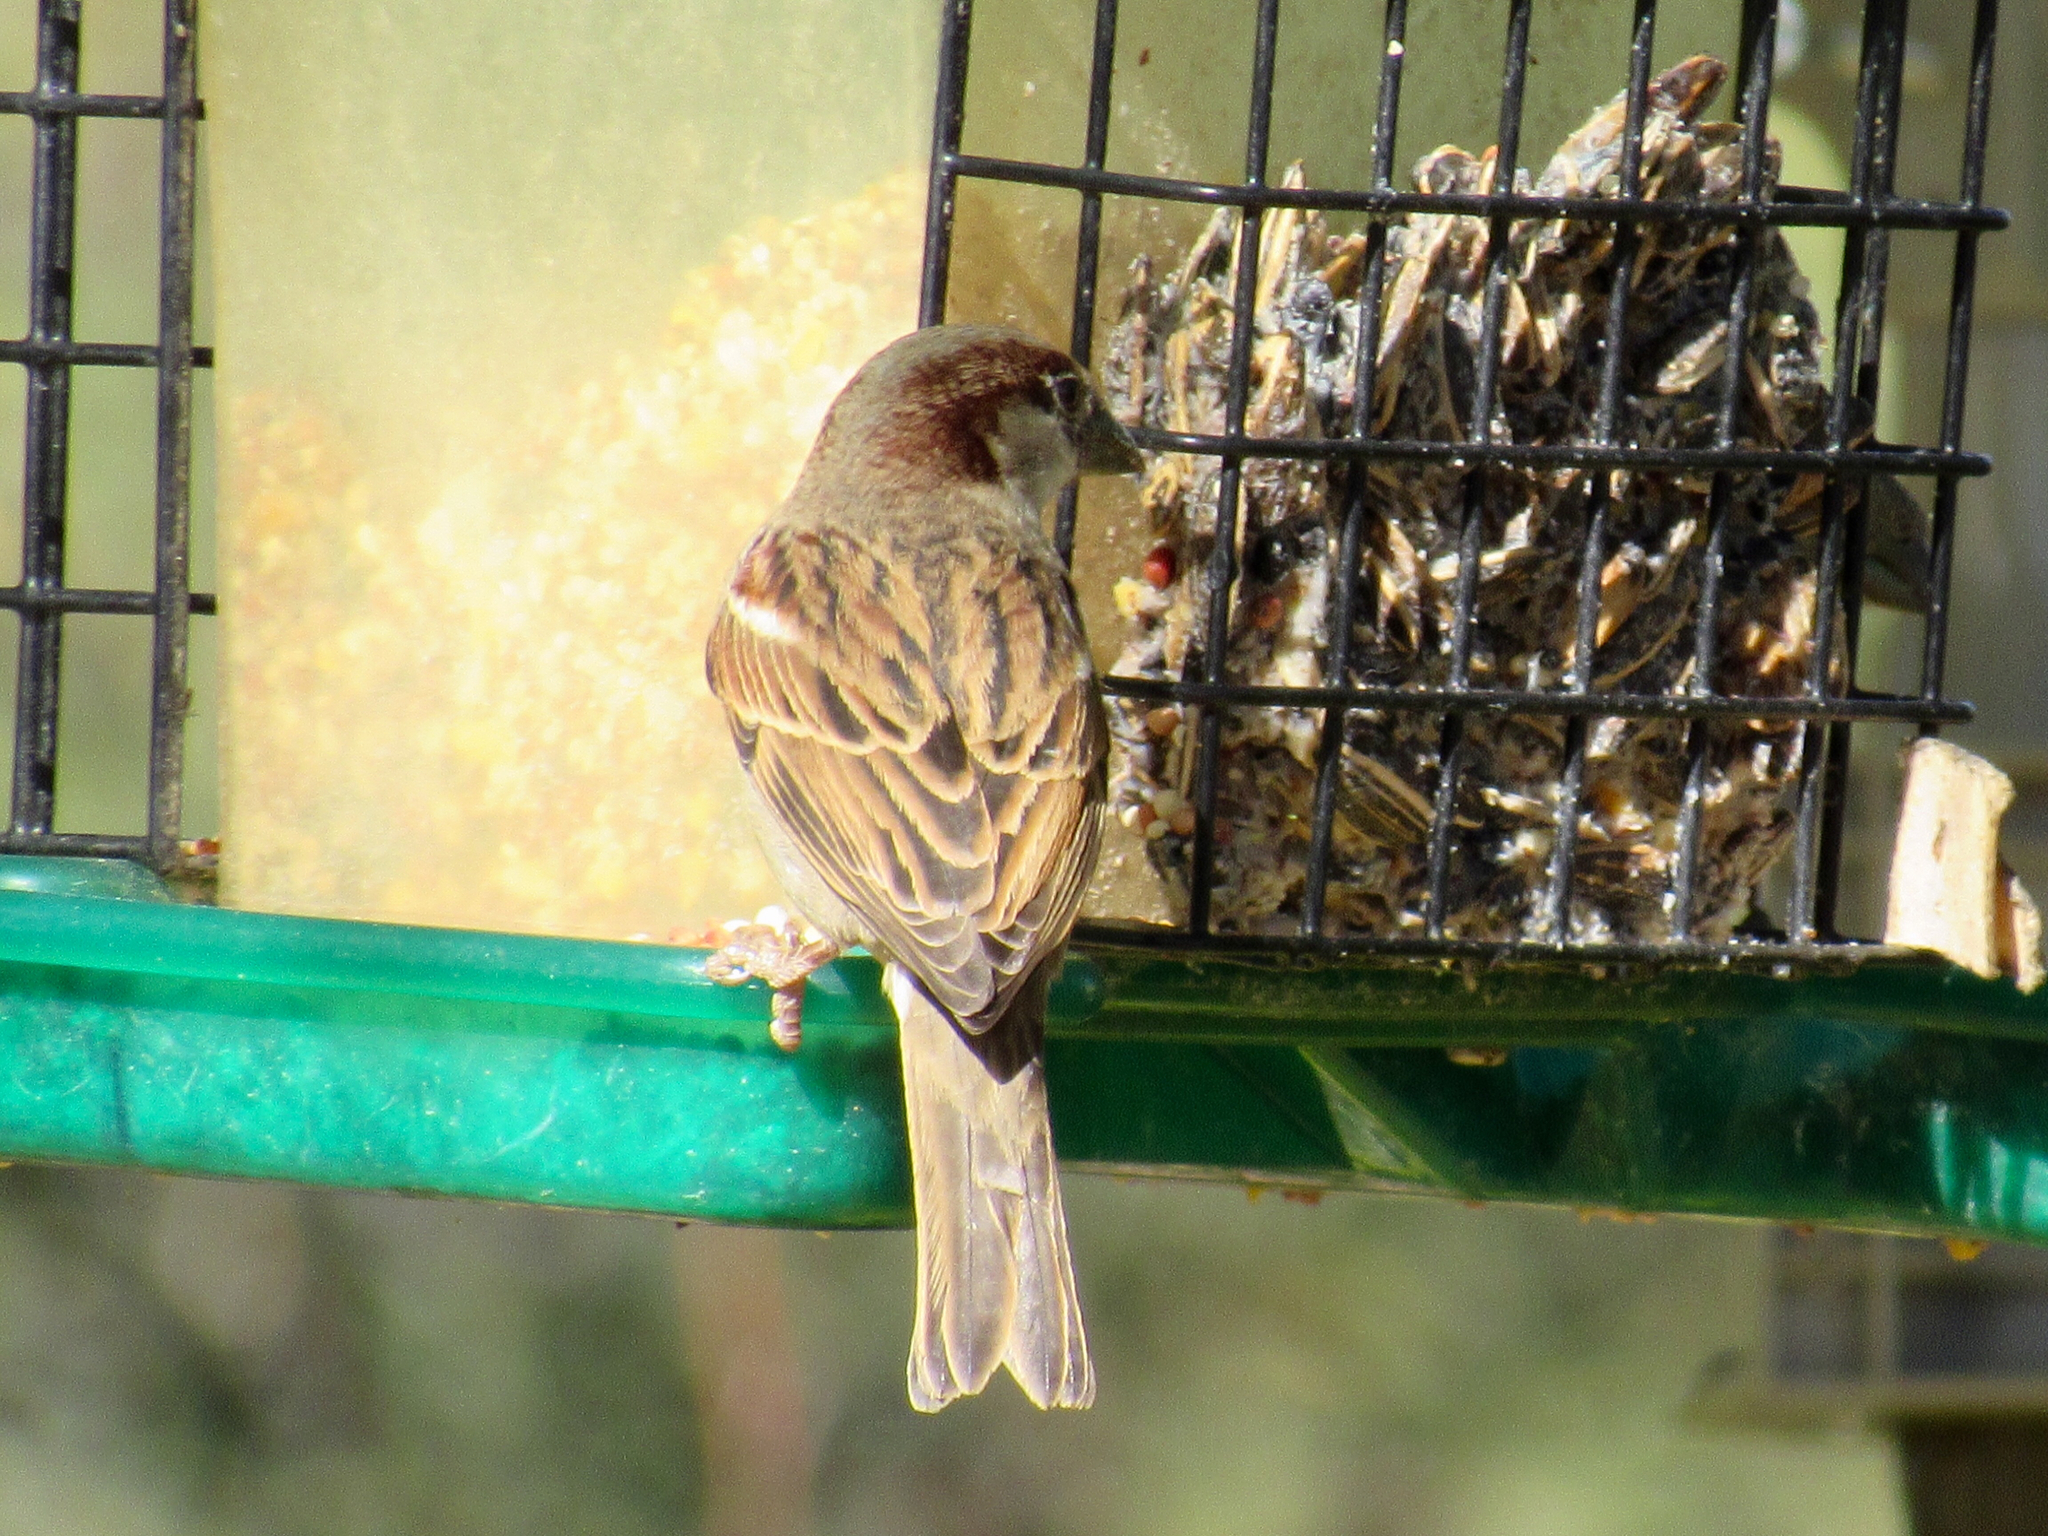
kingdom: Animalia
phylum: Chordata
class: Aves
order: Passeriformes
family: Passeridae
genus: Passer
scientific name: Passer domesticus
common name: House sparrow
